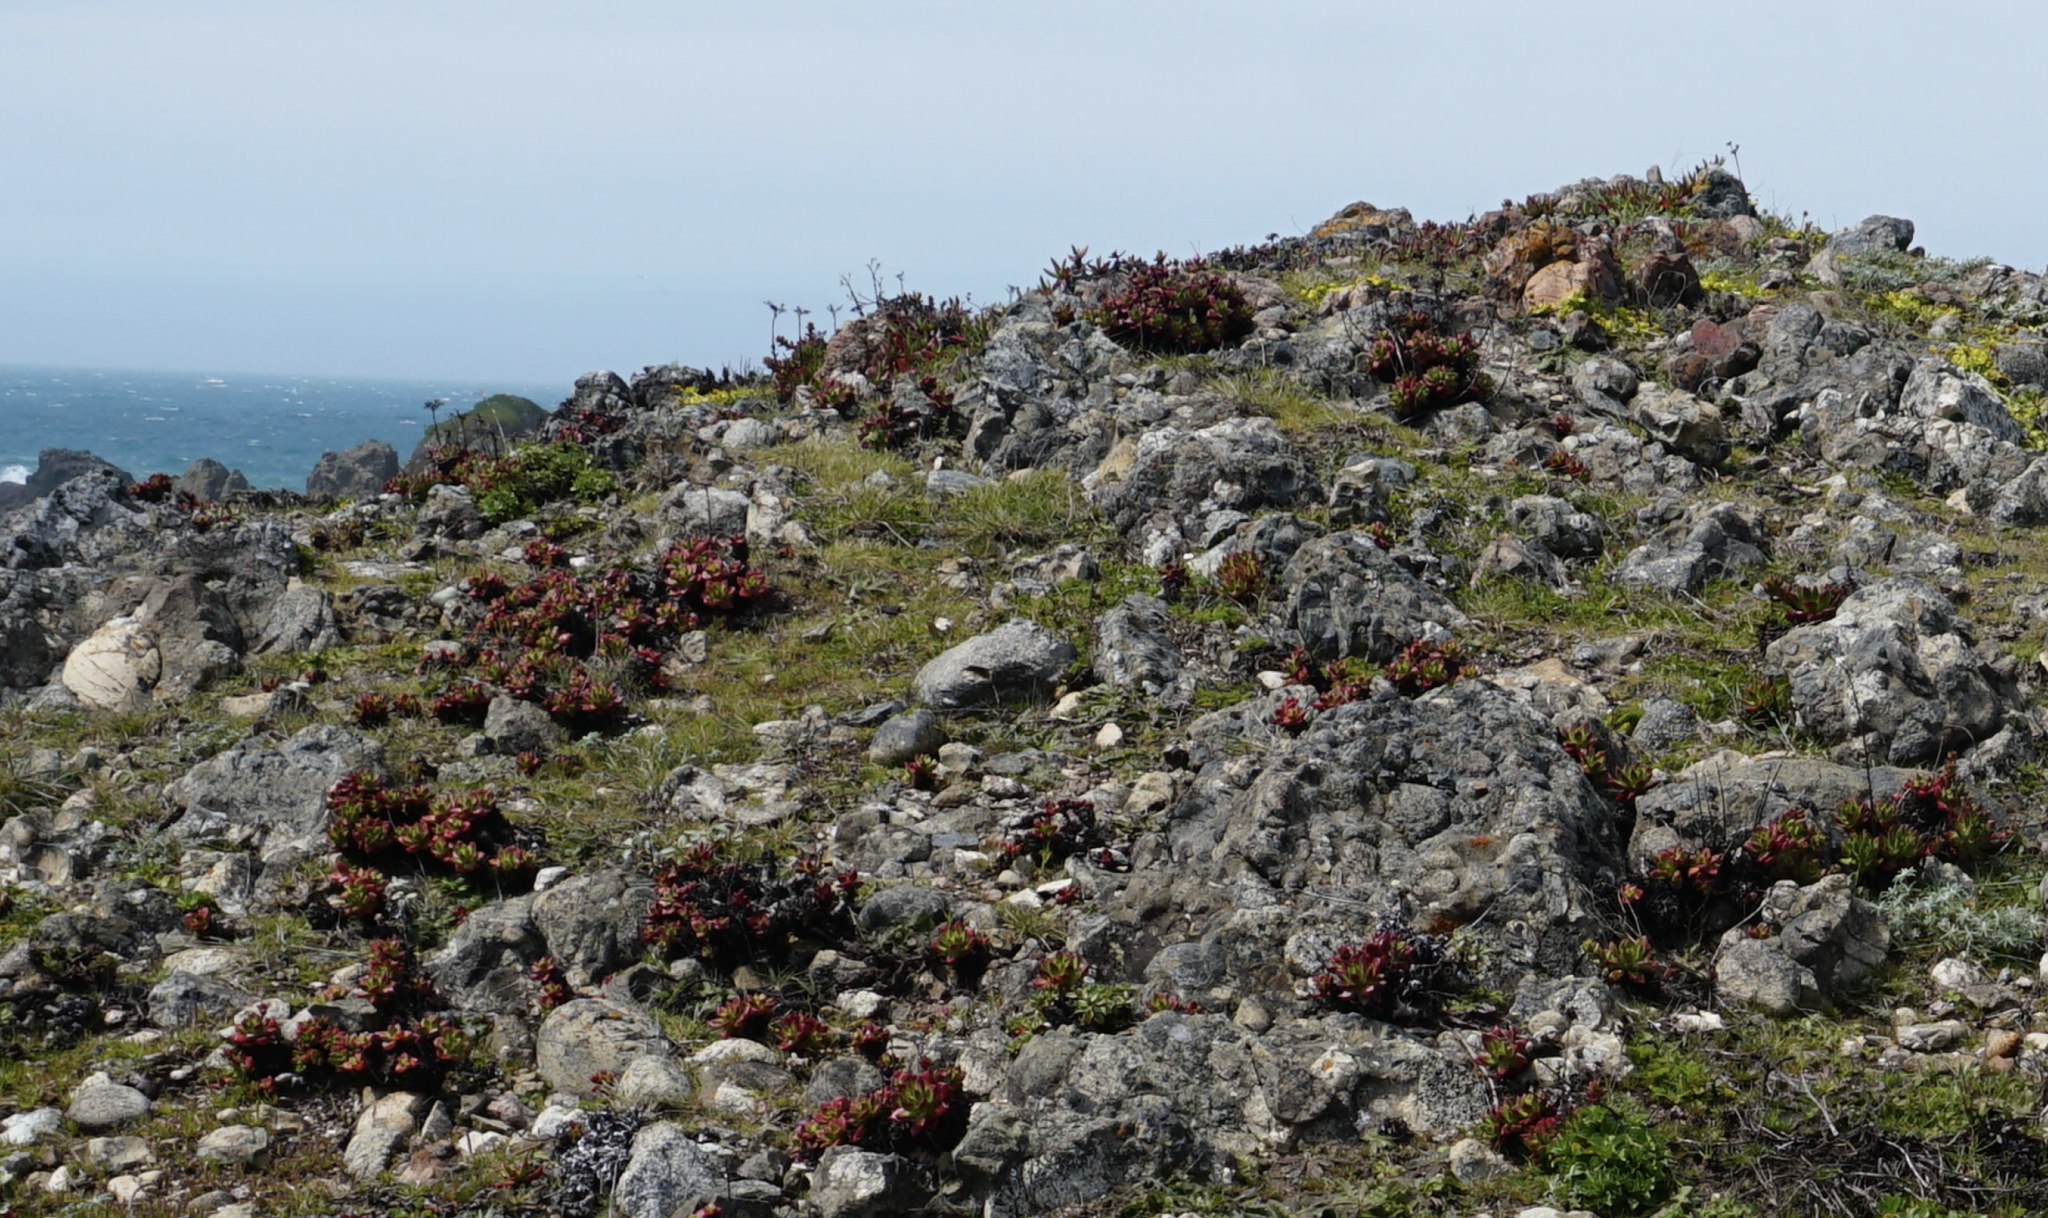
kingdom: Plantae
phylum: Tracheophyta
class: Magnoliopsida
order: Saxifragales
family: Crassulaceae
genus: Dudleya
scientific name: Dudleya farinosa
